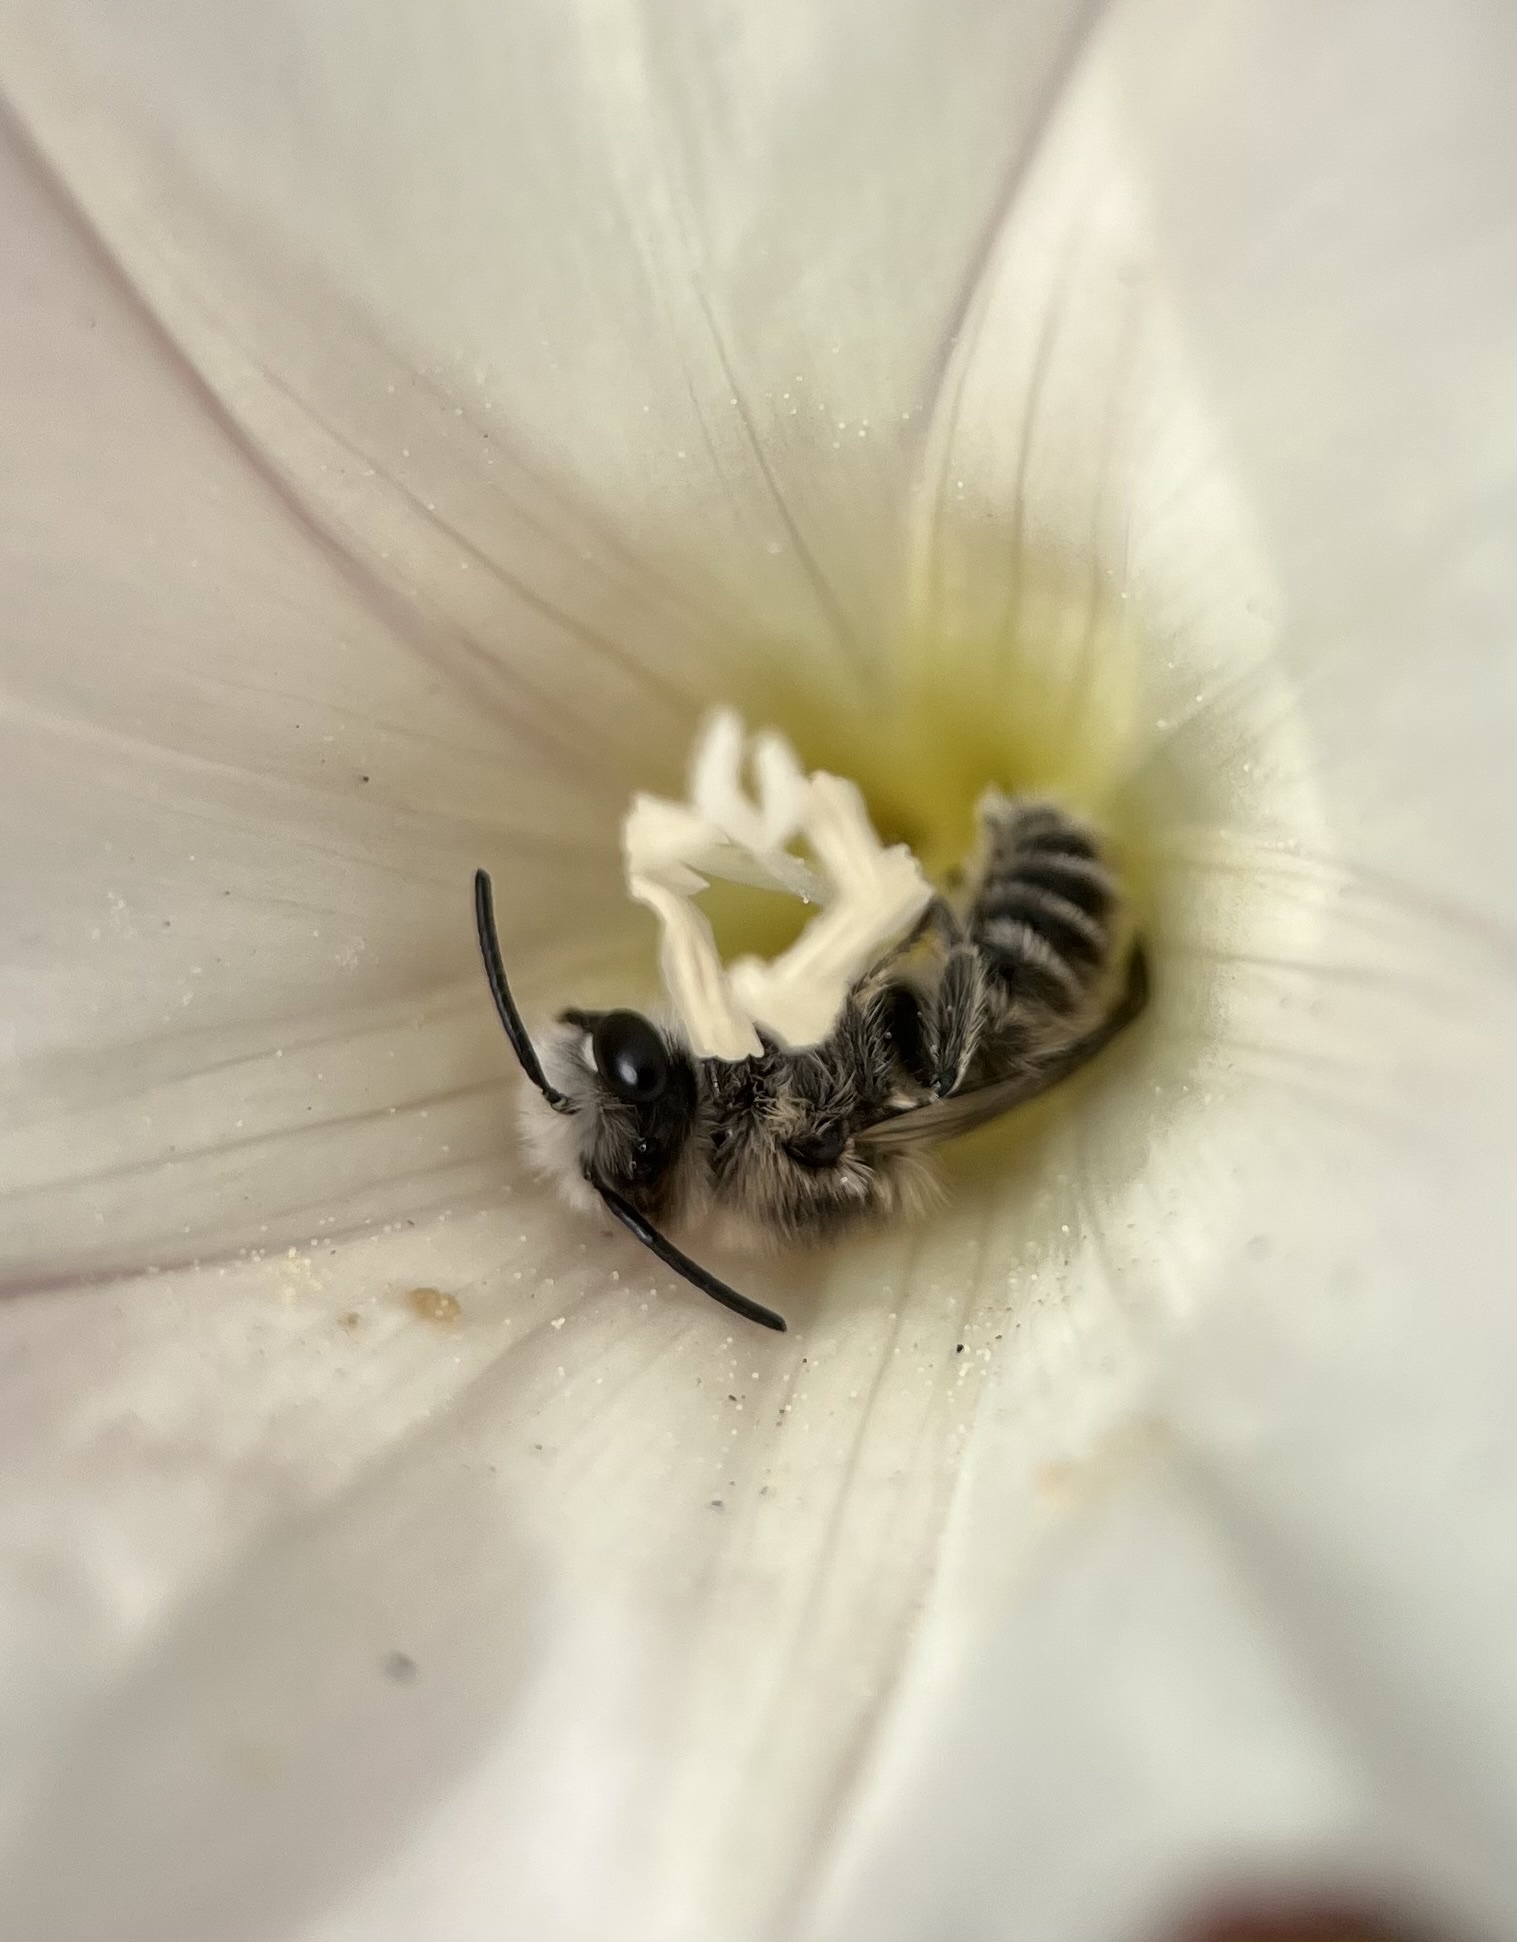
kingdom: Animalia
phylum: Arthropoda
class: Insecta
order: Hymenoptera
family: Andrenidae
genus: Ancylandrena
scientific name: Ancylandrena atoposoma
